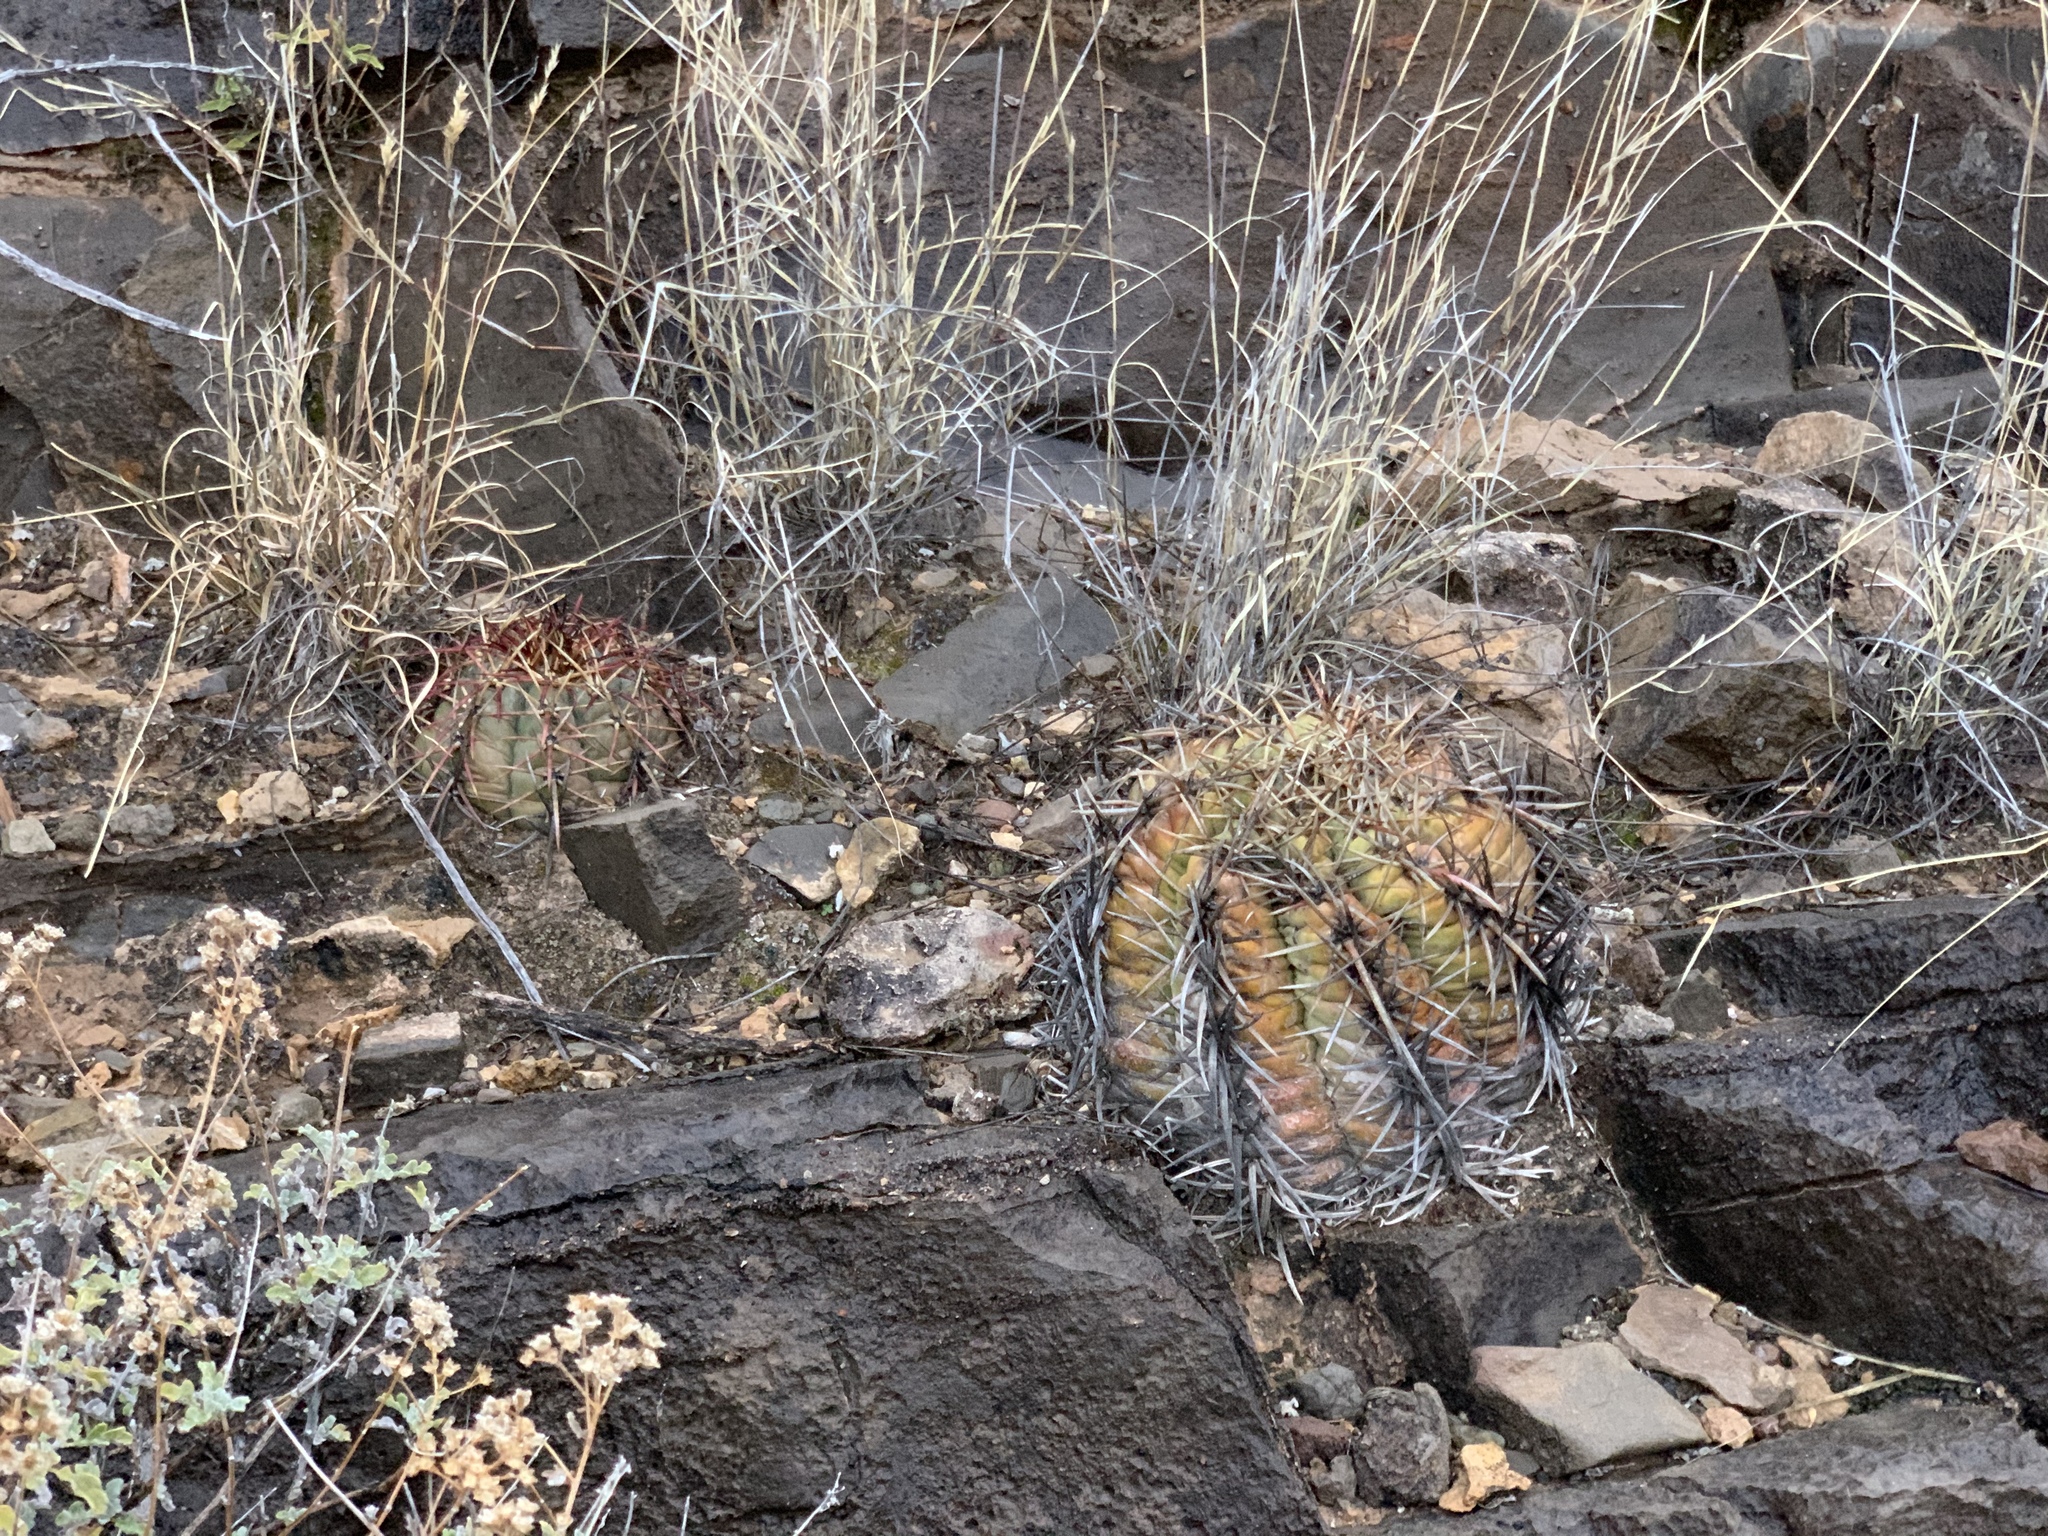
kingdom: Plantae
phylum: Tracheophyta
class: Magnoliopsida
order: Caryophyllales
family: Cactaceae
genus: Echinocactus
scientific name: Echinocactus horizonthalonius
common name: Devilshead
